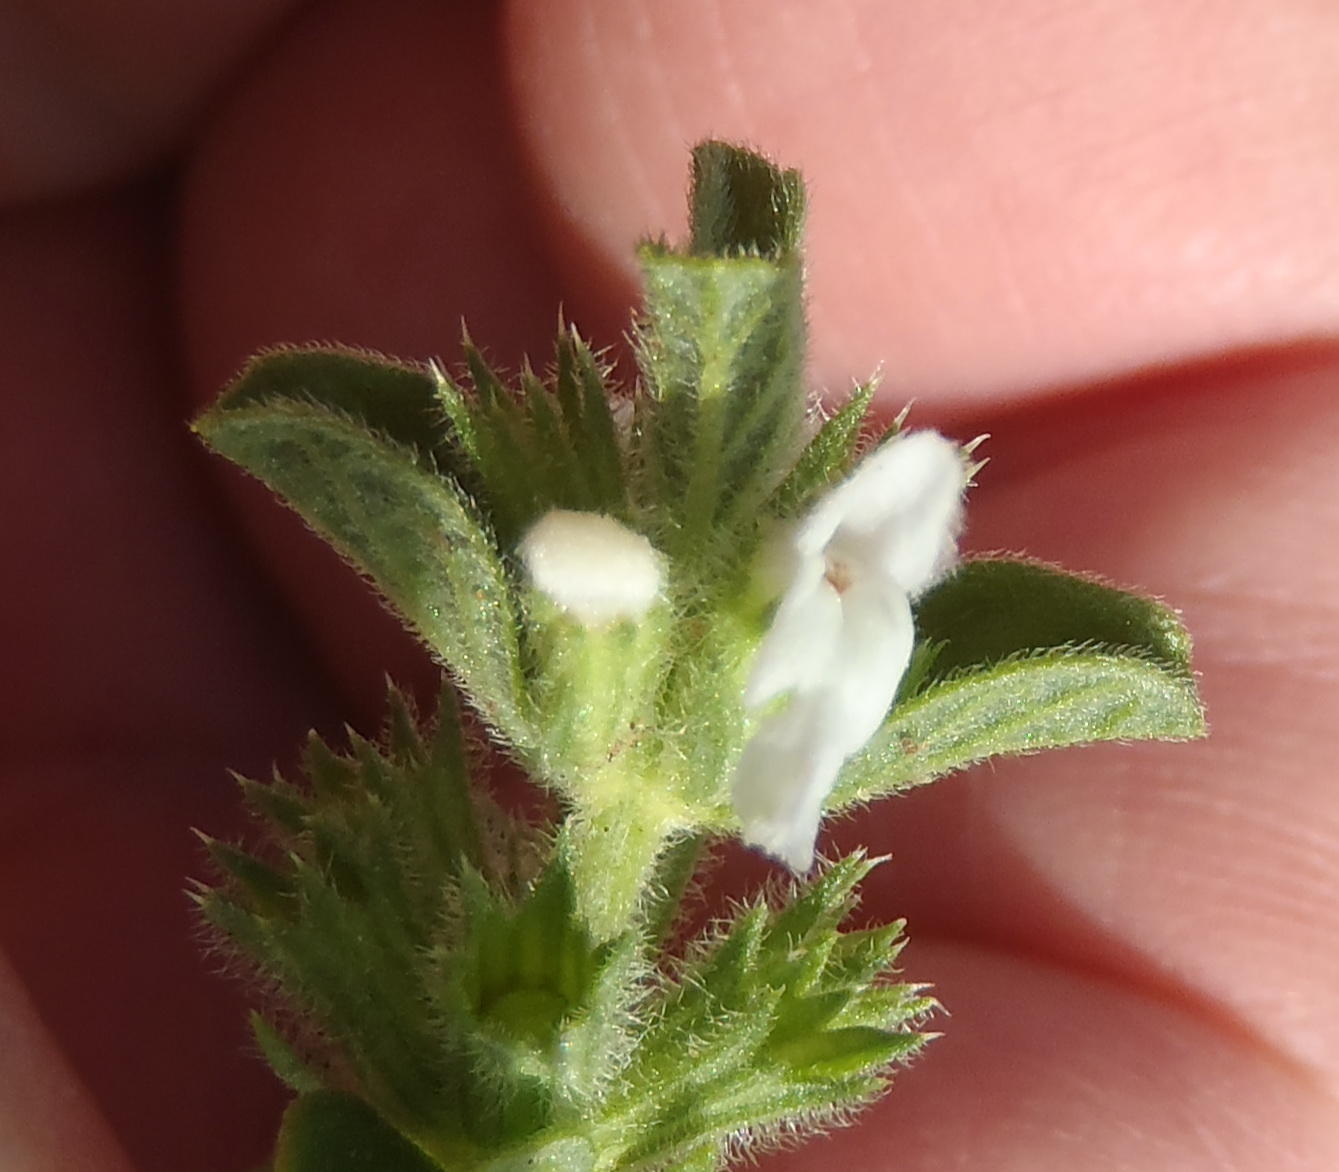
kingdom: Plantae
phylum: Tracheophyta
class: Magnoliopsida
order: Lamiales
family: Lamiaceae
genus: Acrotome
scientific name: Acrotome hispida
